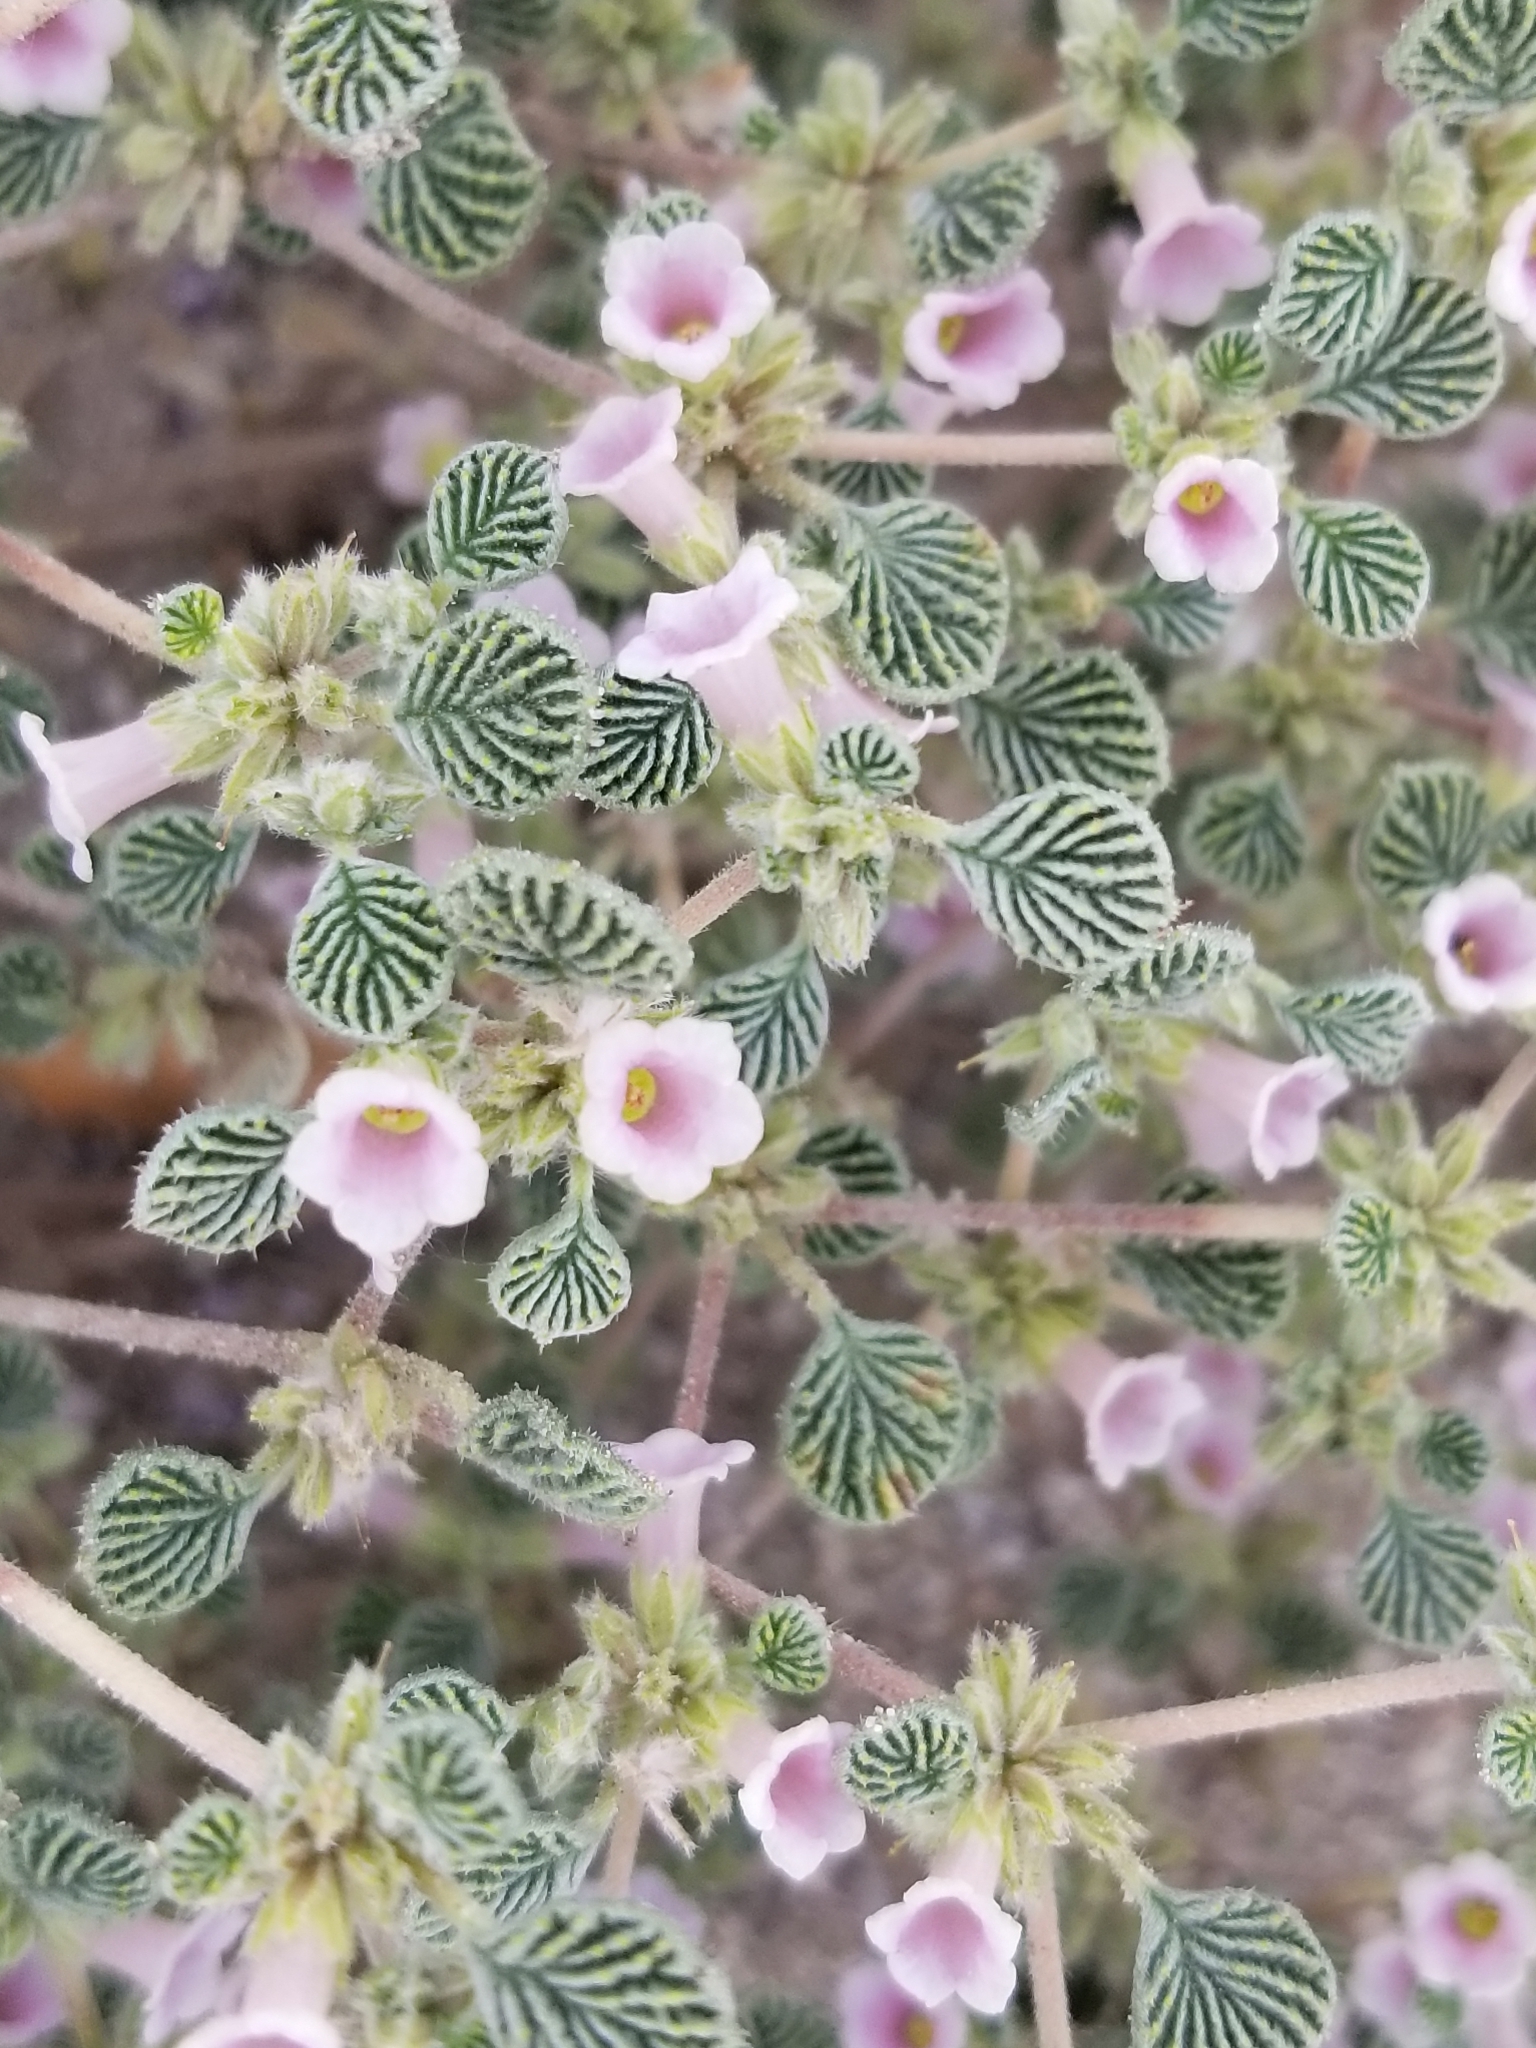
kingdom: Plantae
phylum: Tracheophyta
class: Magnoliopsida
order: Boraginales
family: Ehretiaceae
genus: Tiquilia
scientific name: Tiquilia plicata
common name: Fan-leaf tiquilia
